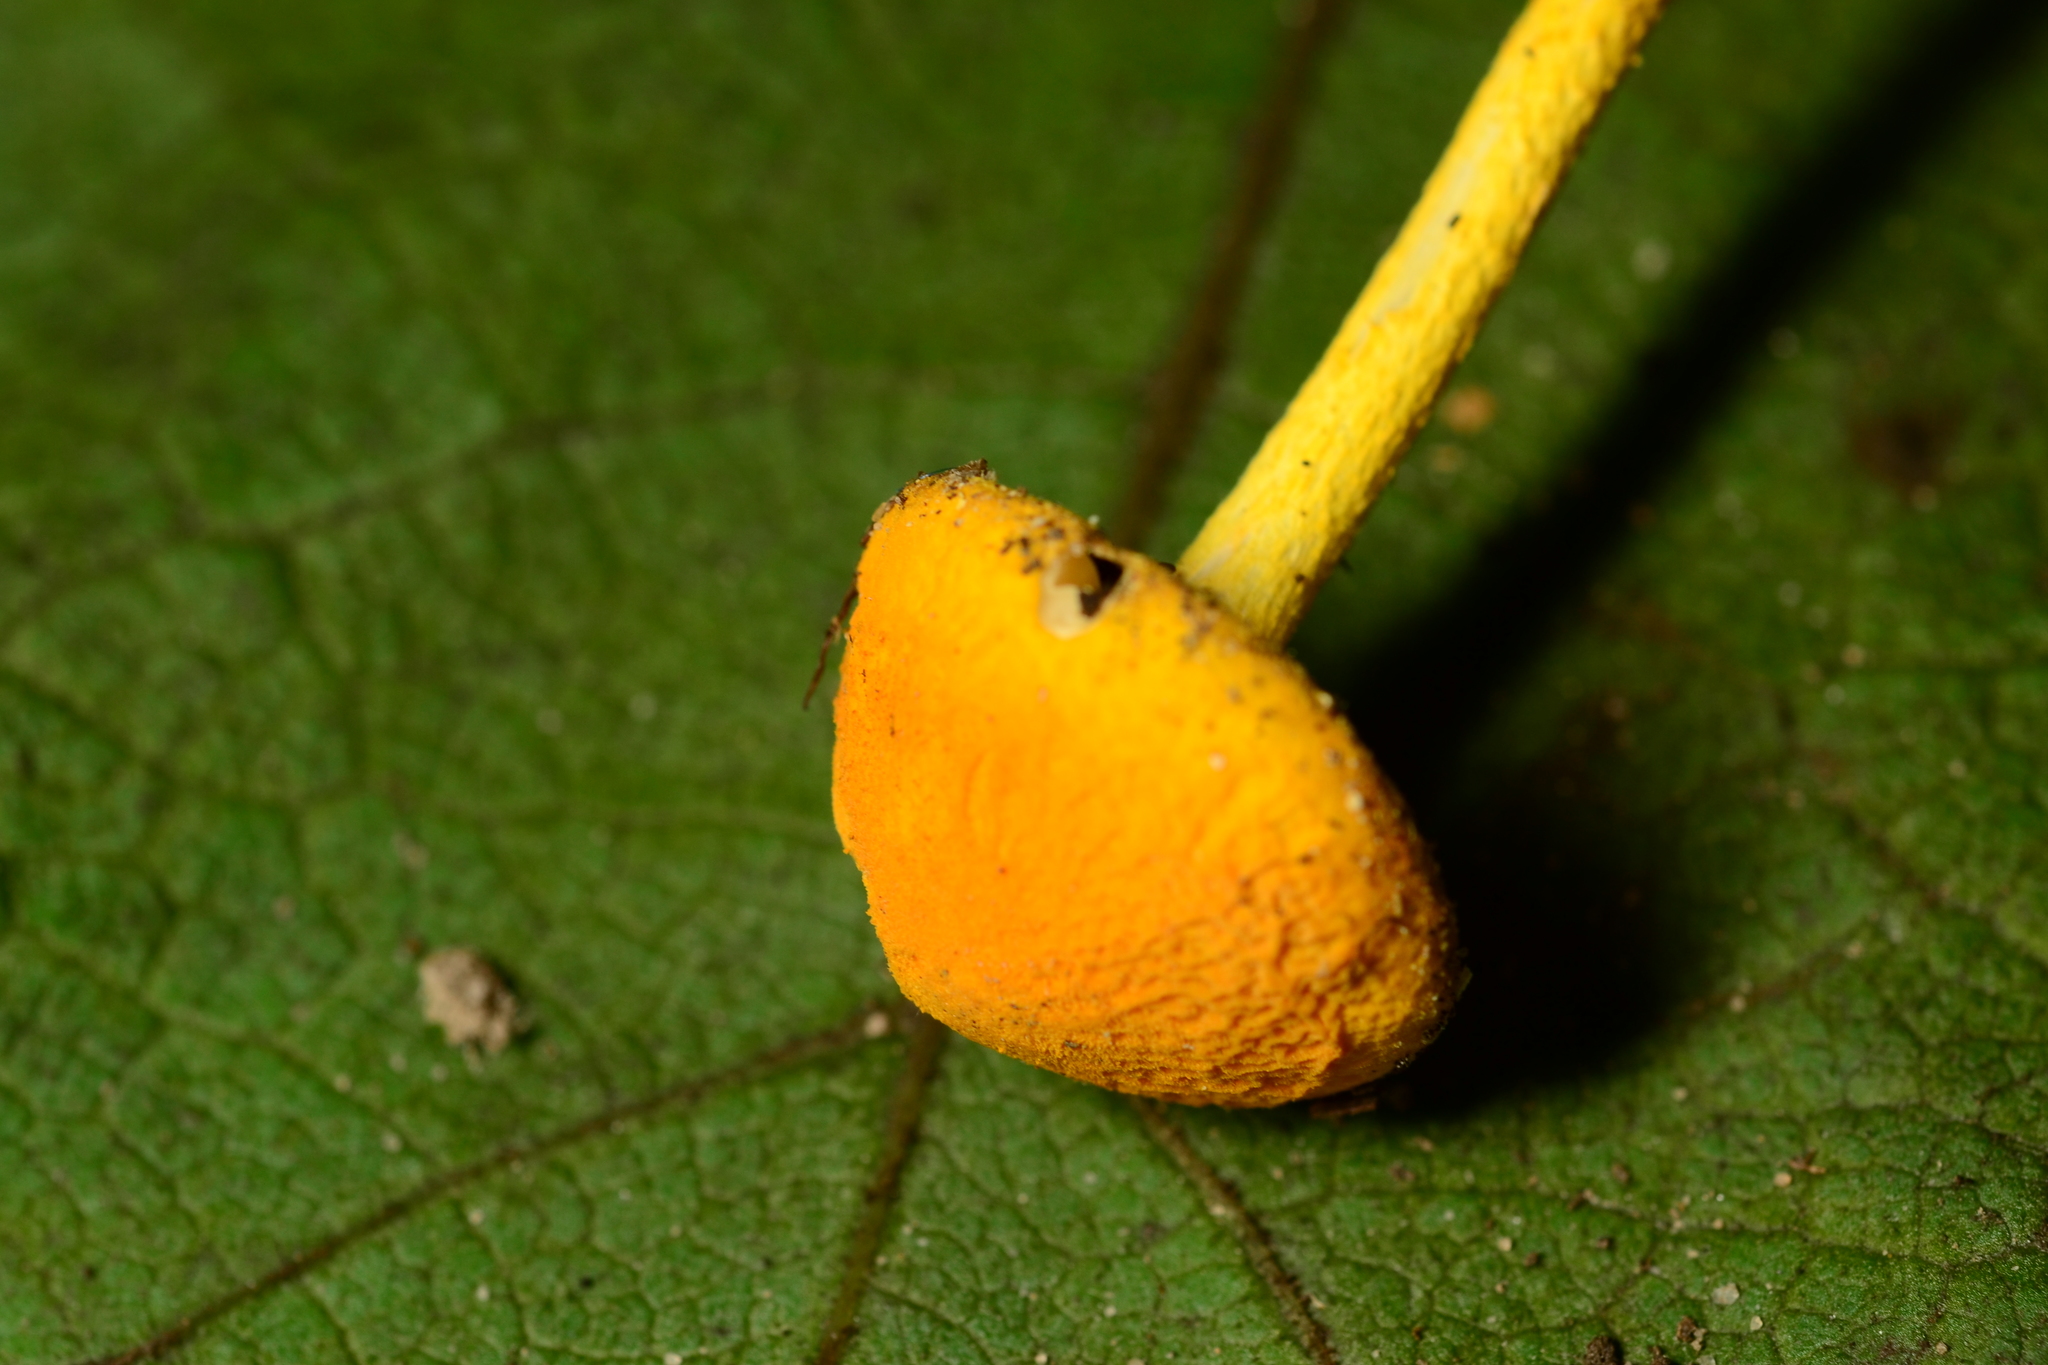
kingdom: Fungi
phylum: Basidiomycota
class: Agaricomycetes
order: Agaricales
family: Physalacriaceae
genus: Cyptotrama
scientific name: Cyptotrama chrysopepla
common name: Golden coincap
